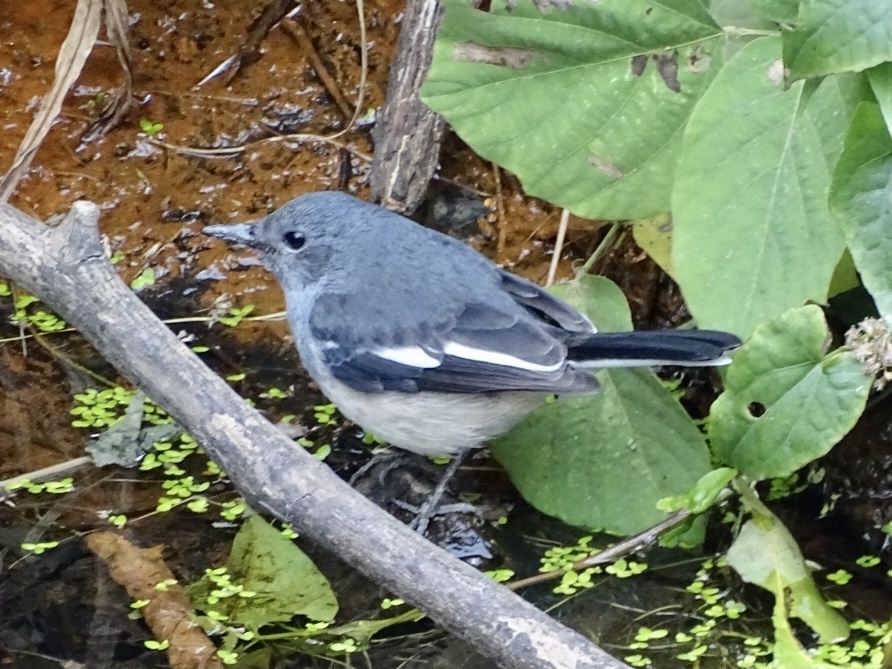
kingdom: Animalia
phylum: Chordata
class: Aves
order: Passeriformes
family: Muscicapidae
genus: Copsychus
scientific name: Copsychus saularis
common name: Oriental magpie-robin
